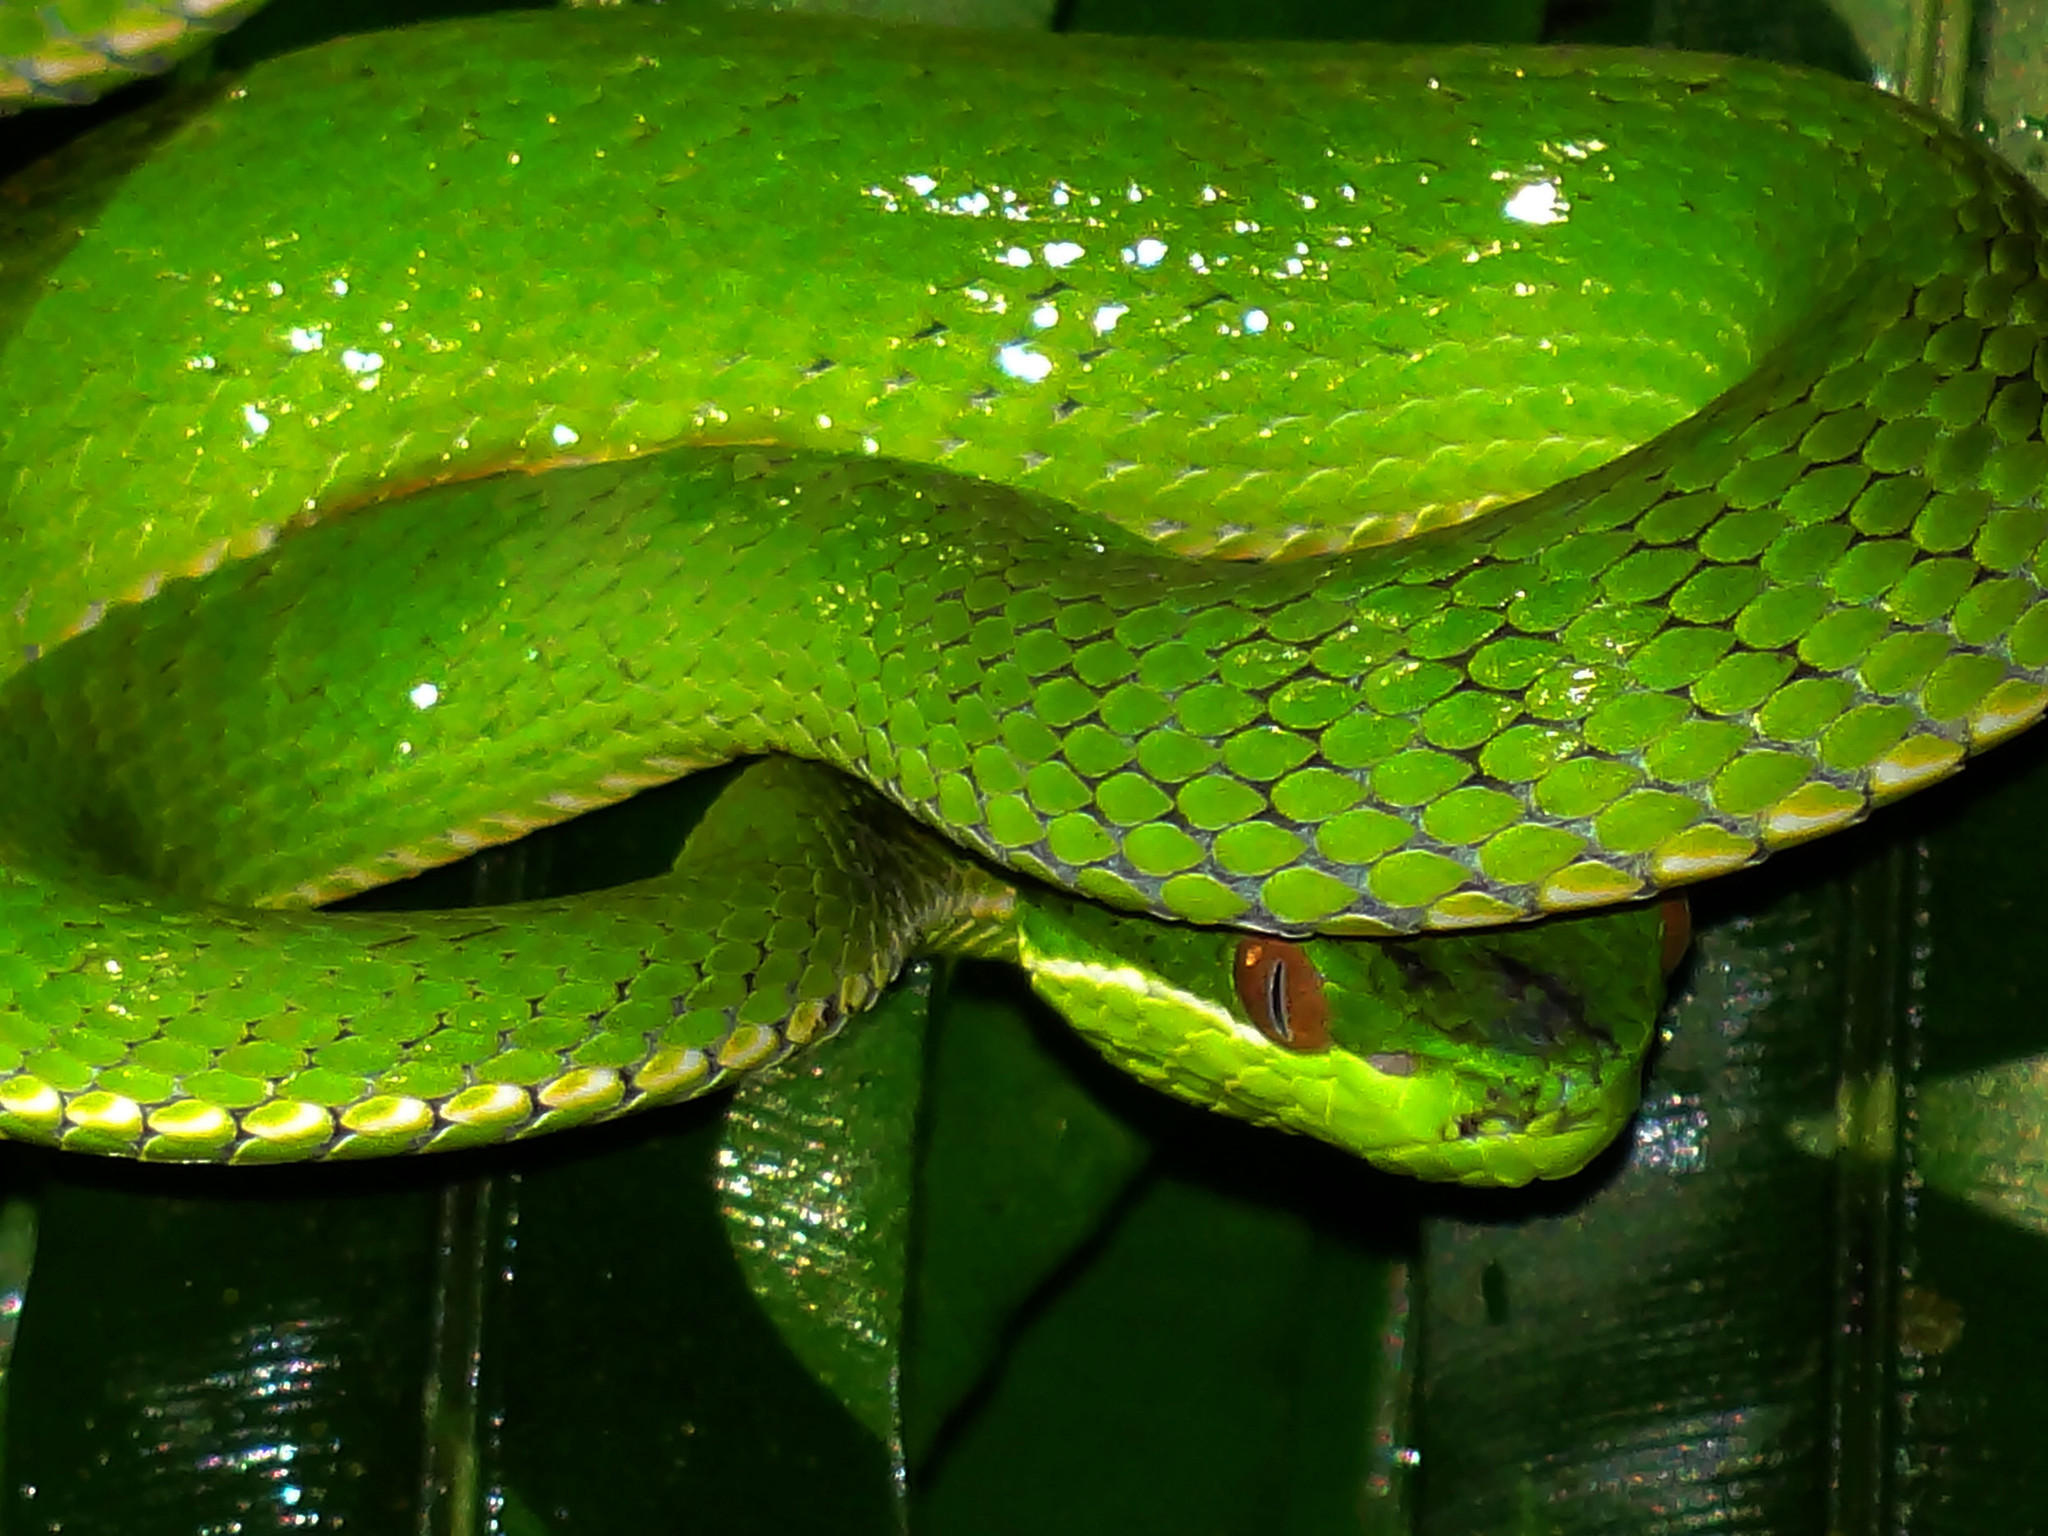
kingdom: Animalia
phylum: Chordata
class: Squamata
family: Viperidae
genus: Trimeresurus
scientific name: Trimeresurus stejnegeri
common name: Chen’s bamboo pit viper
